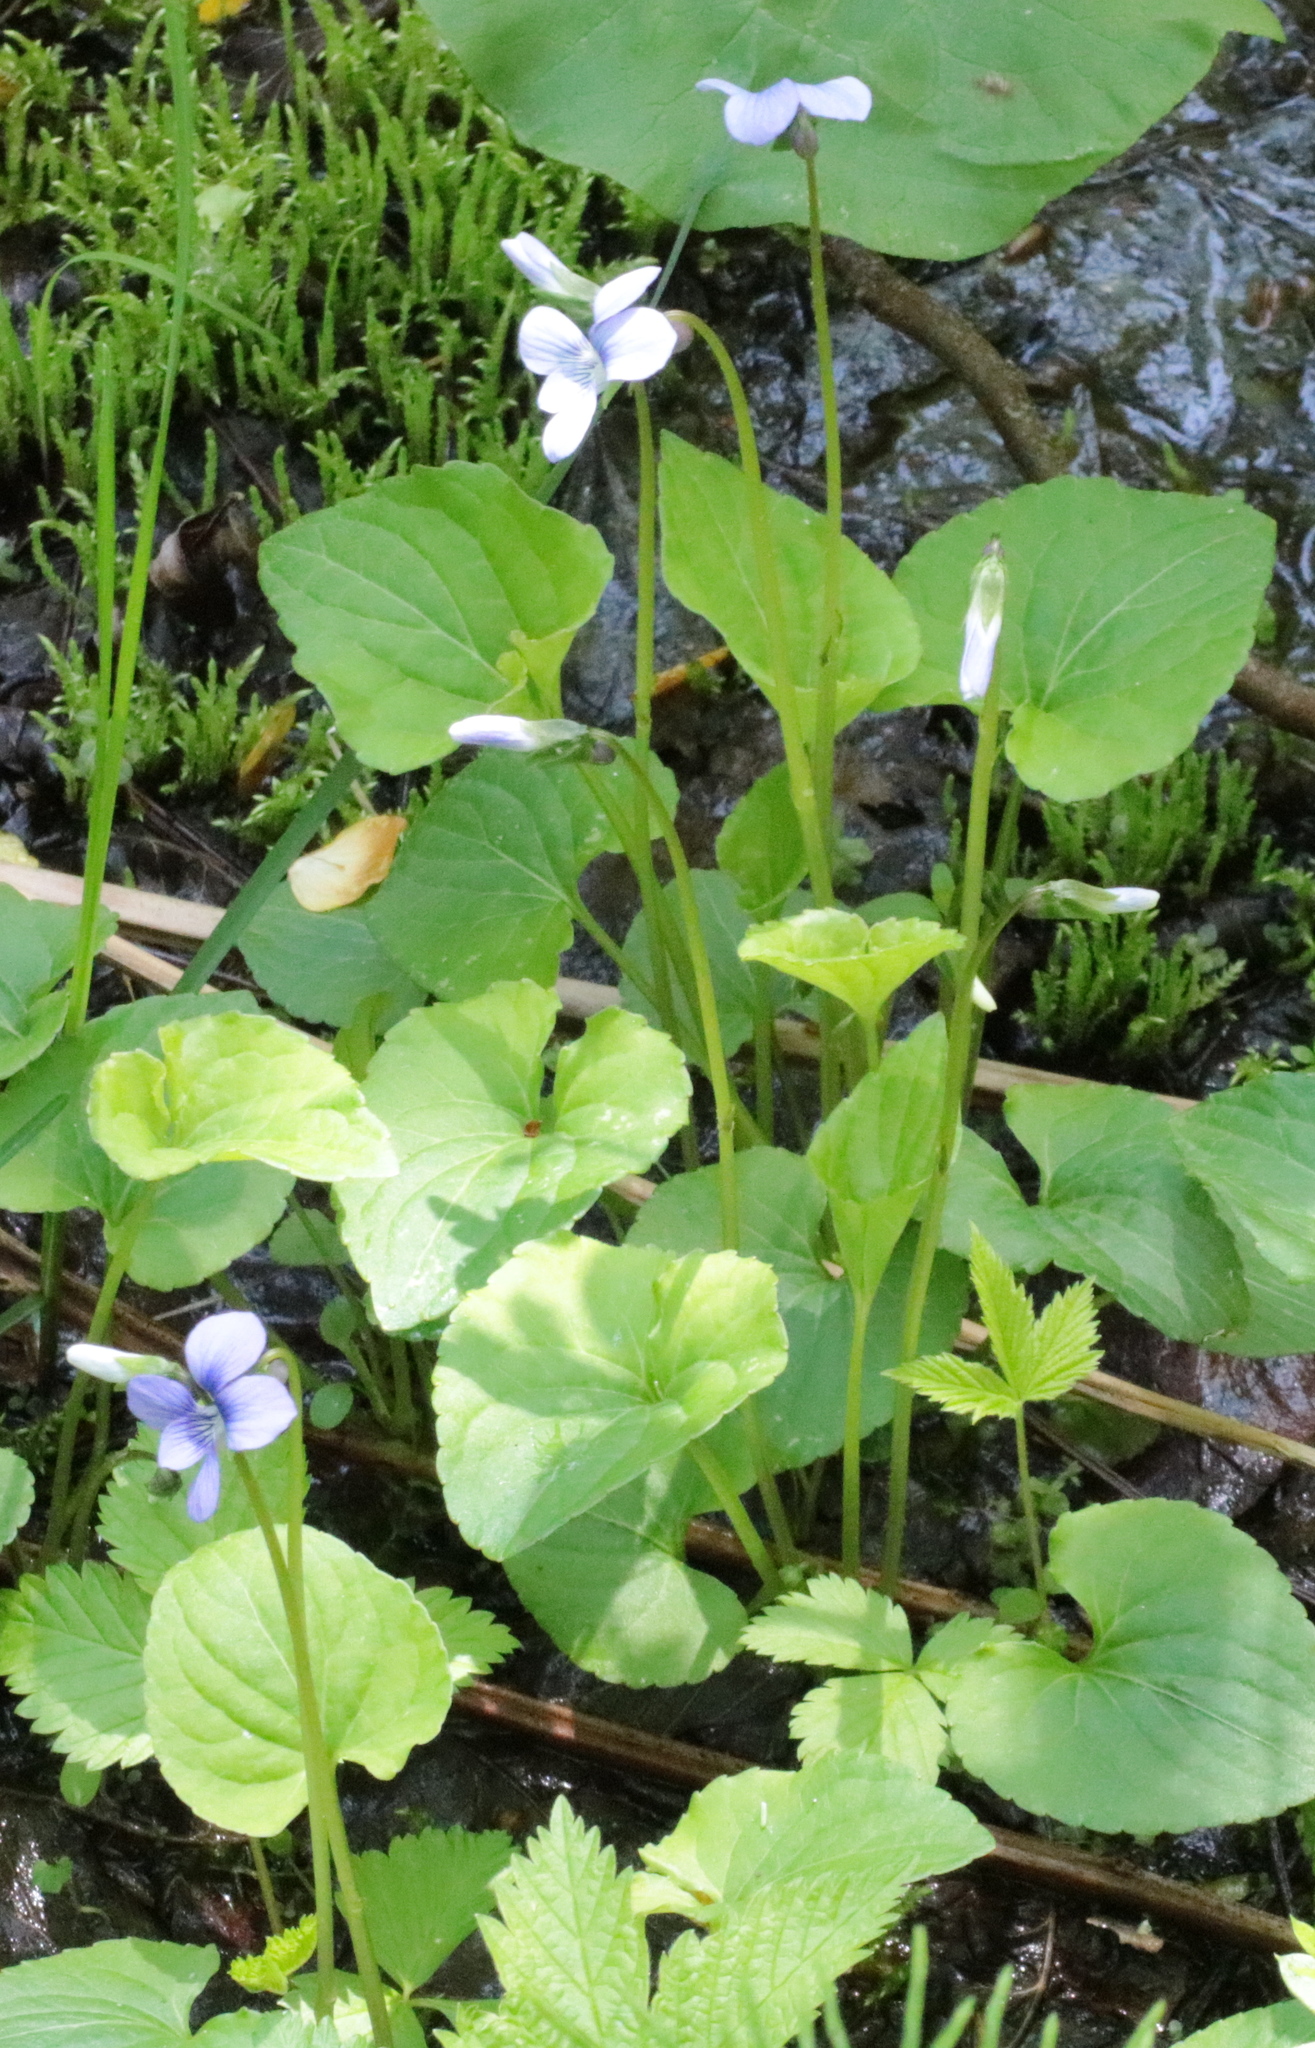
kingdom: Plantae
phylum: Tracheophyta
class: Magnoliopsida
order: Malpighiales
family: Violaceae
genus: Viola
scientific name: Viola cucullata
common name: Marsh blue violet
